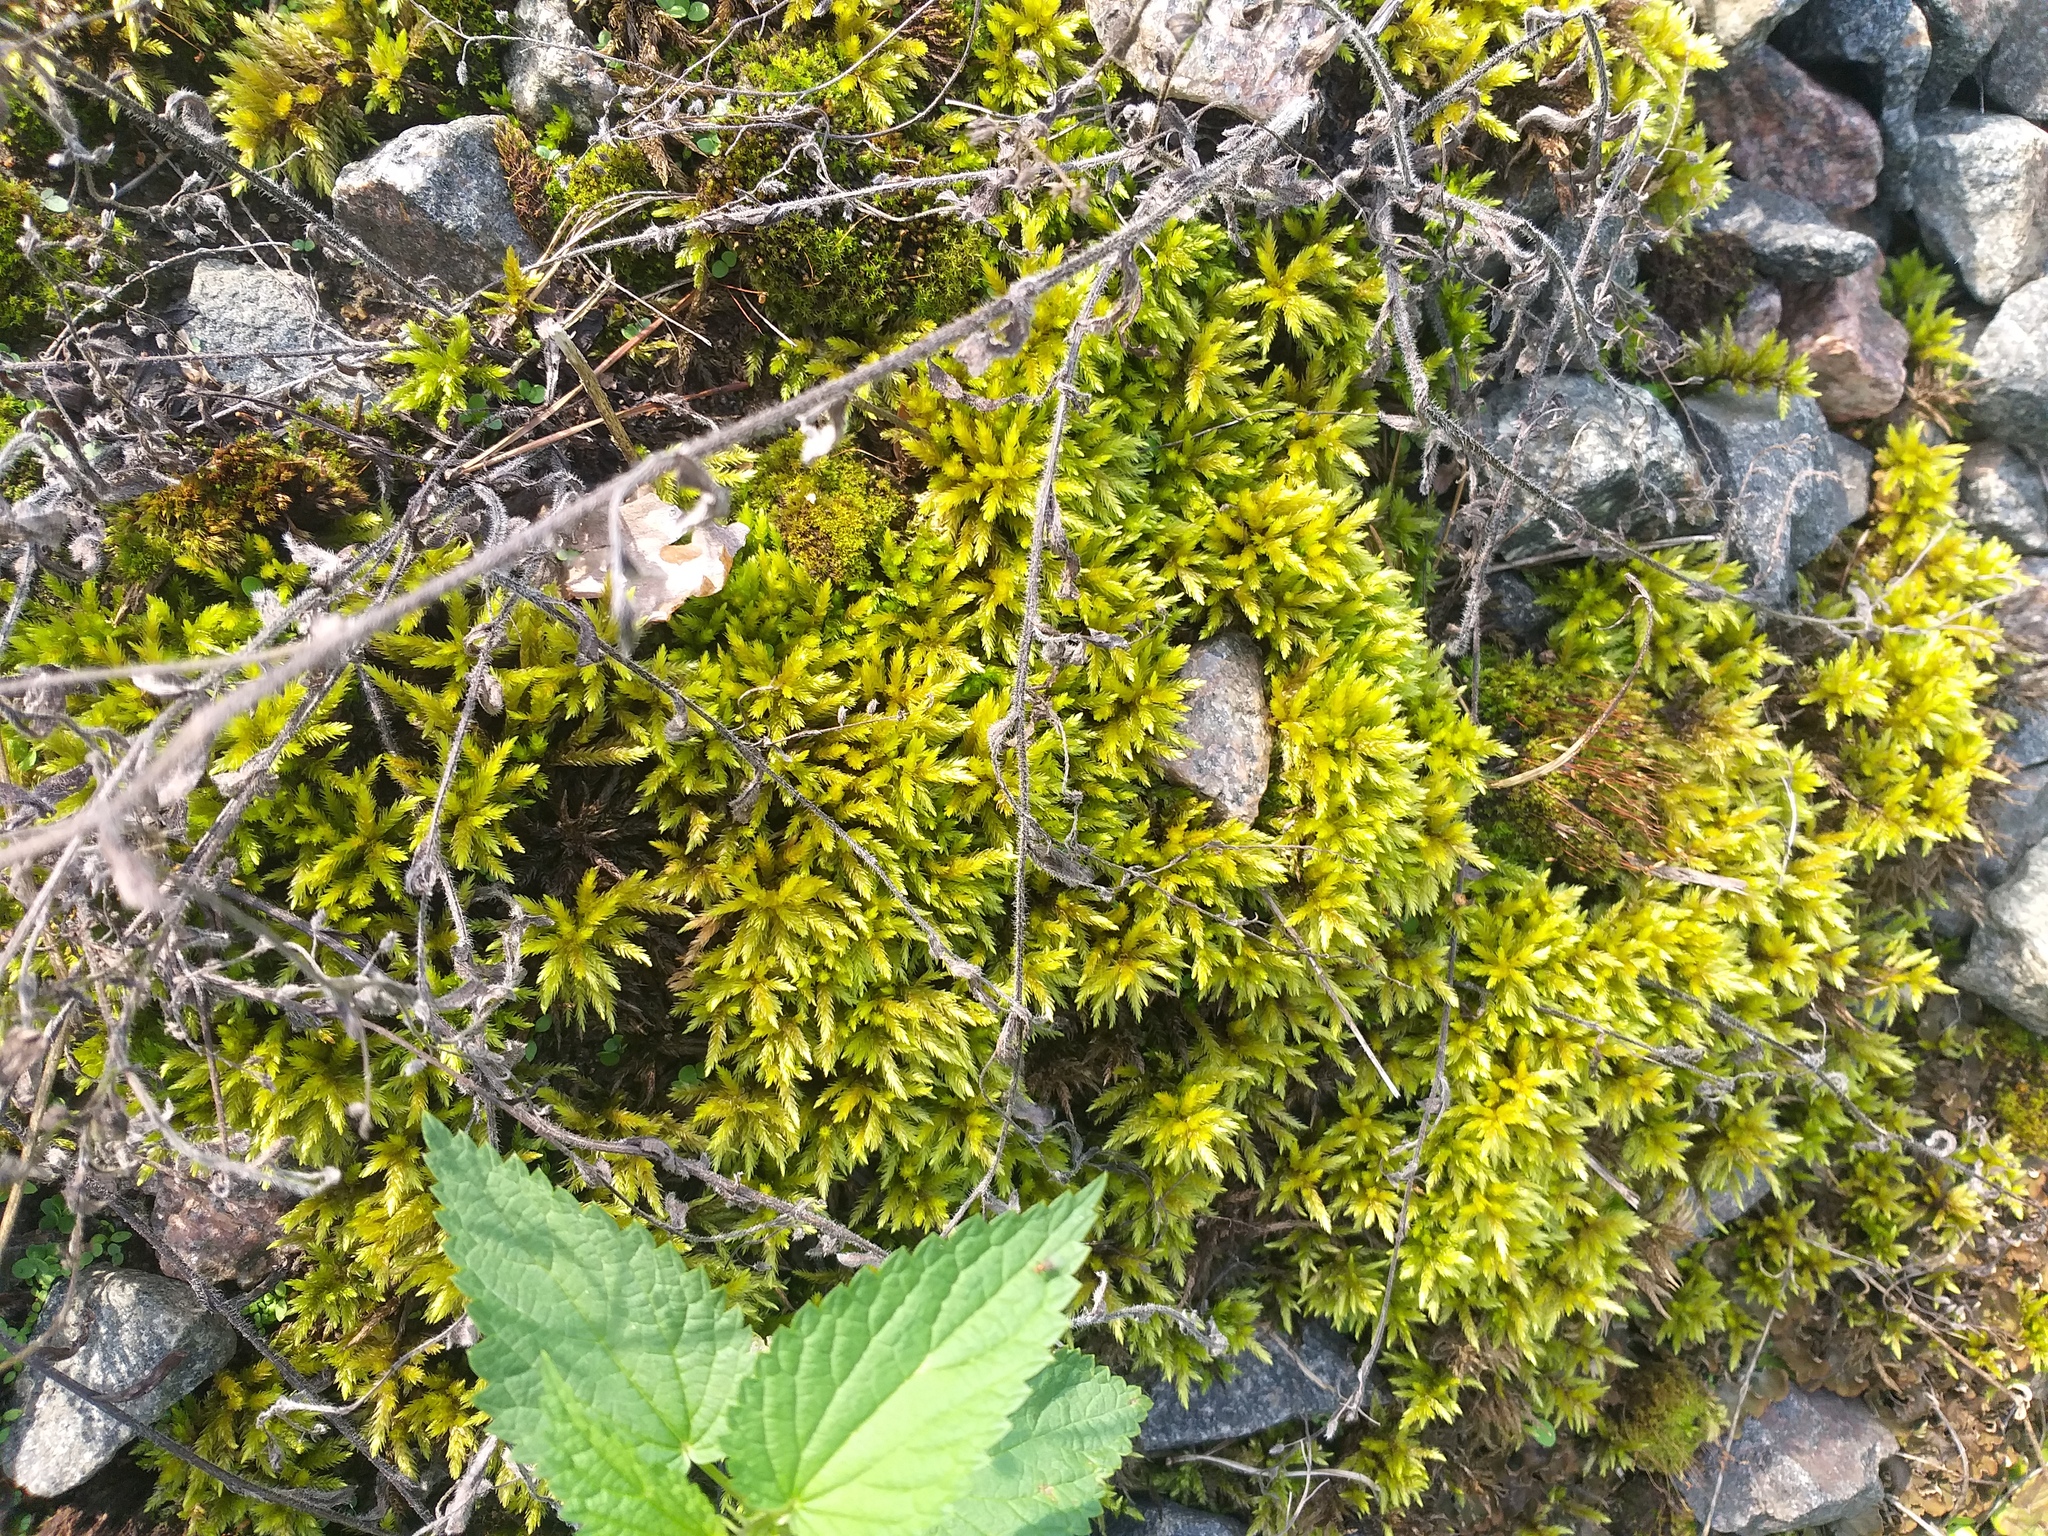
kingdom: Plantae
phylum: Bryophyta
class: Bryopsida
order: Hypnales
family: Climaciaceae
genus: Climacium
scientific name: Climacium dendroides
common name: Northern tree moss
